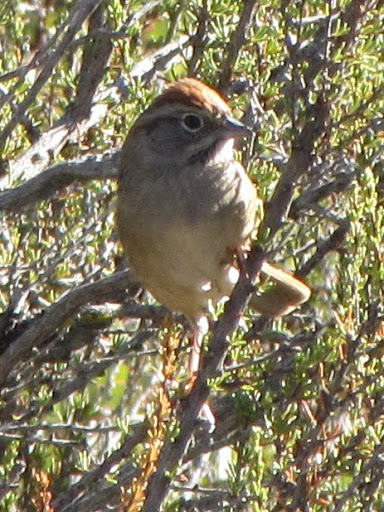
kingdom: Animalia
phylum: Chordata
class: Aves
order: Passeriformes
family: Passerellidae
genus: Aimophila
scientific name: Aimophila ruficeps
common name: Rufous-crowned sparrow
